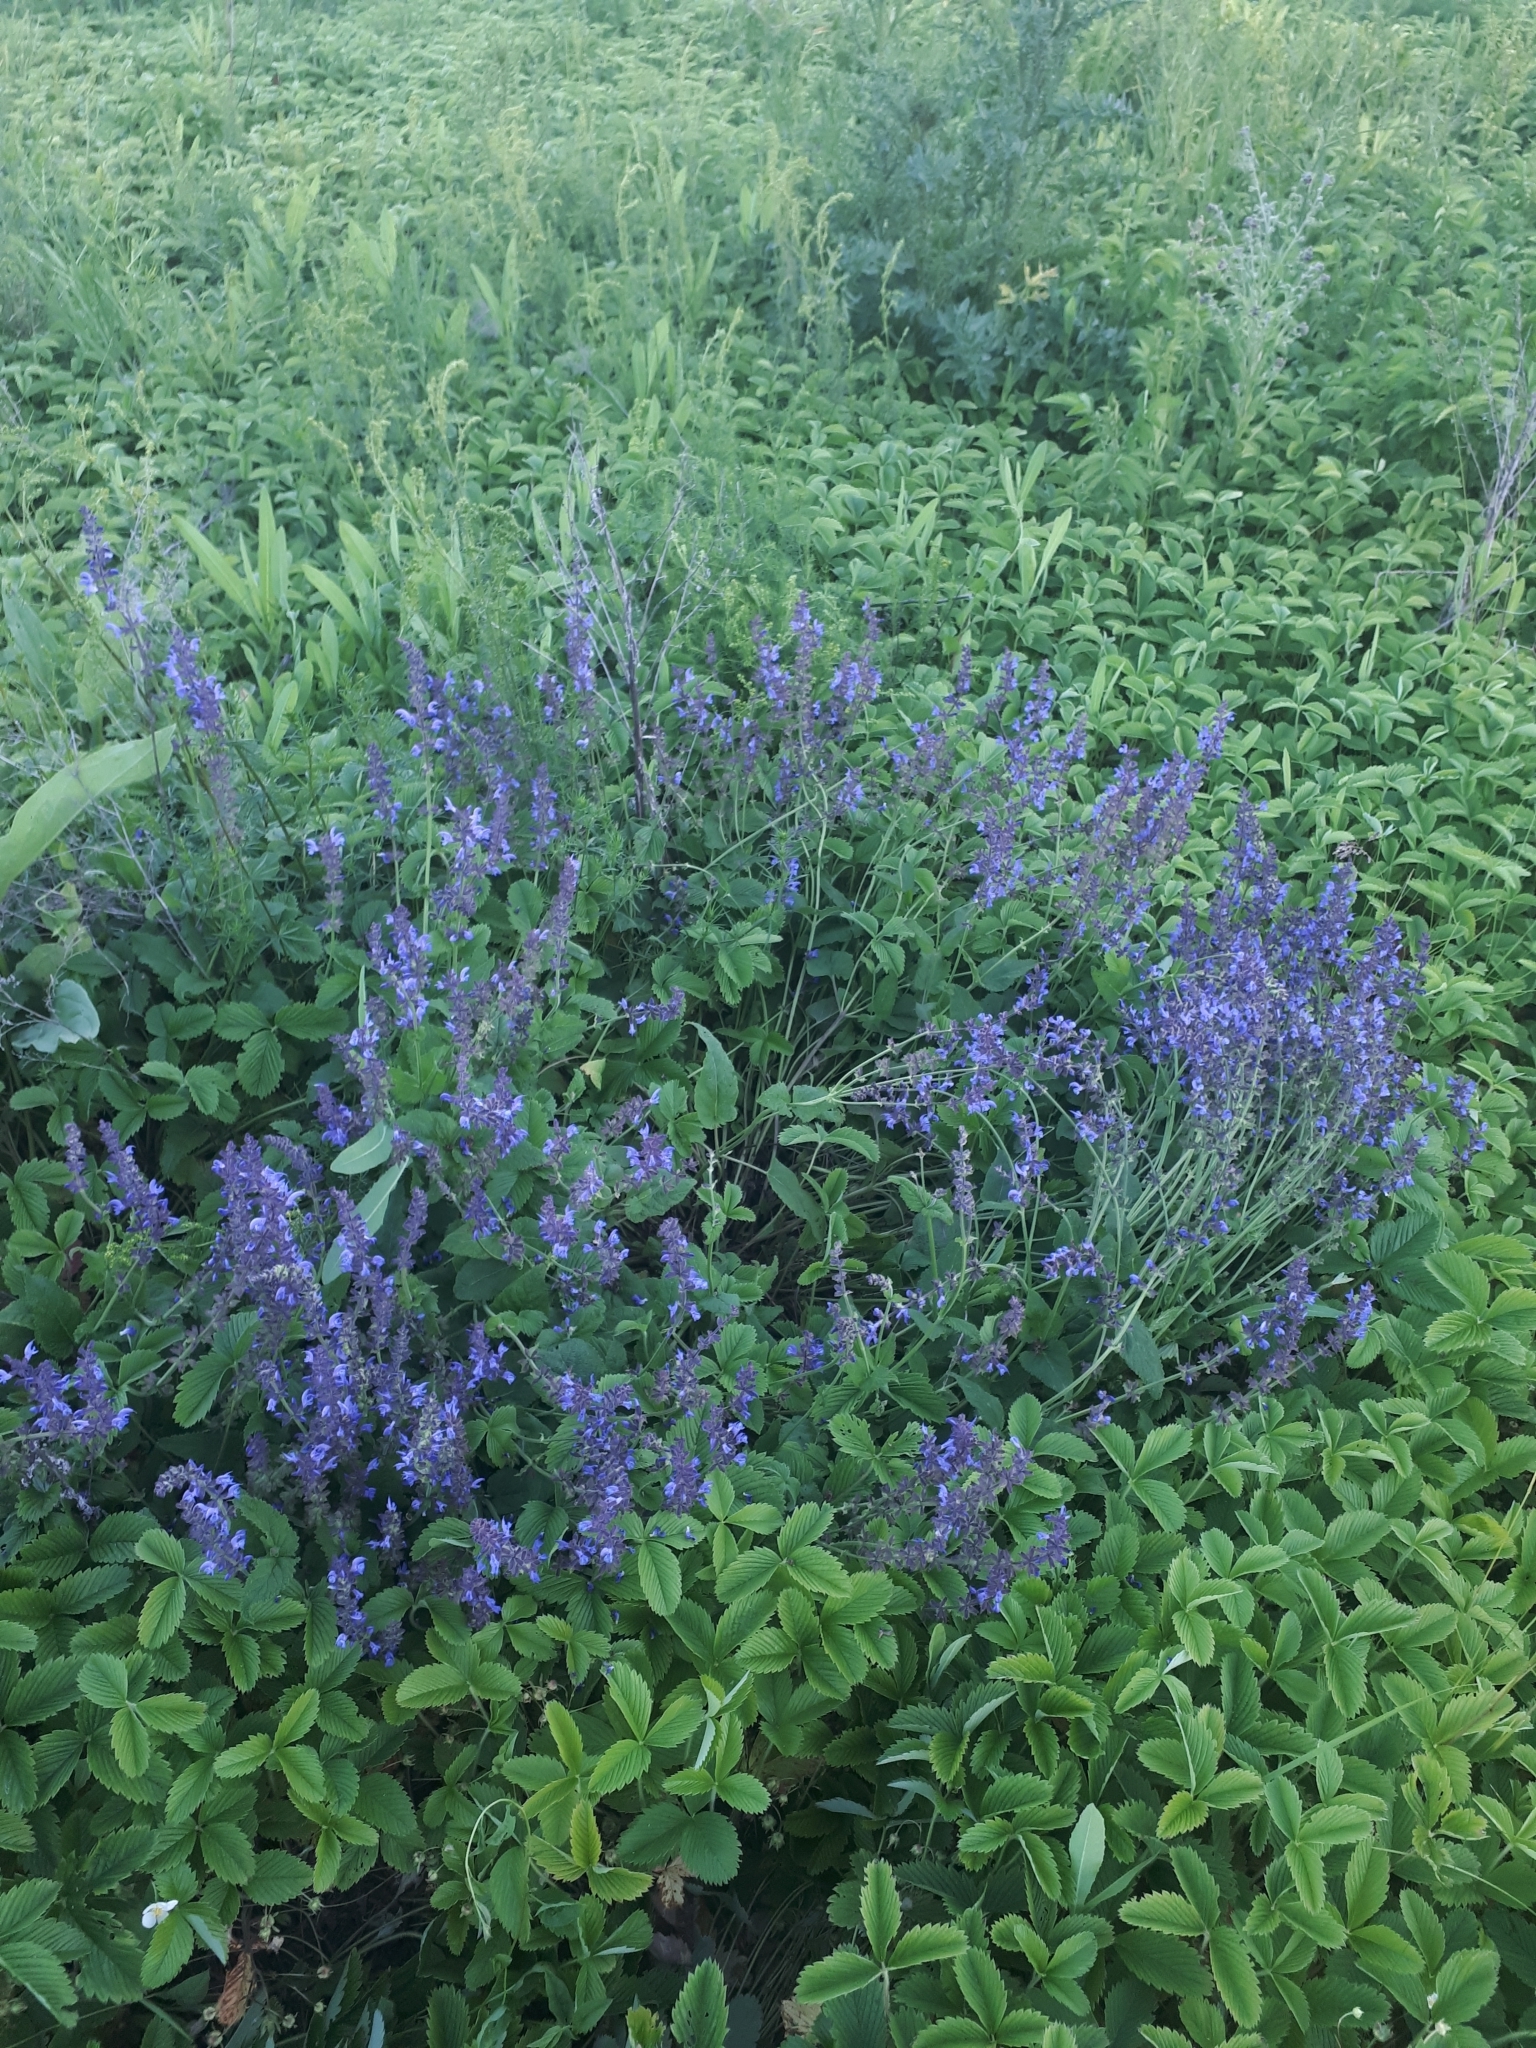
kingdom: Plantae
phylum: Tracheophyta
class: Magnoliopsida
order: Lamiales
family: Lamiaceae
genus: Salvia
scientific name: Salvia dumetorum
